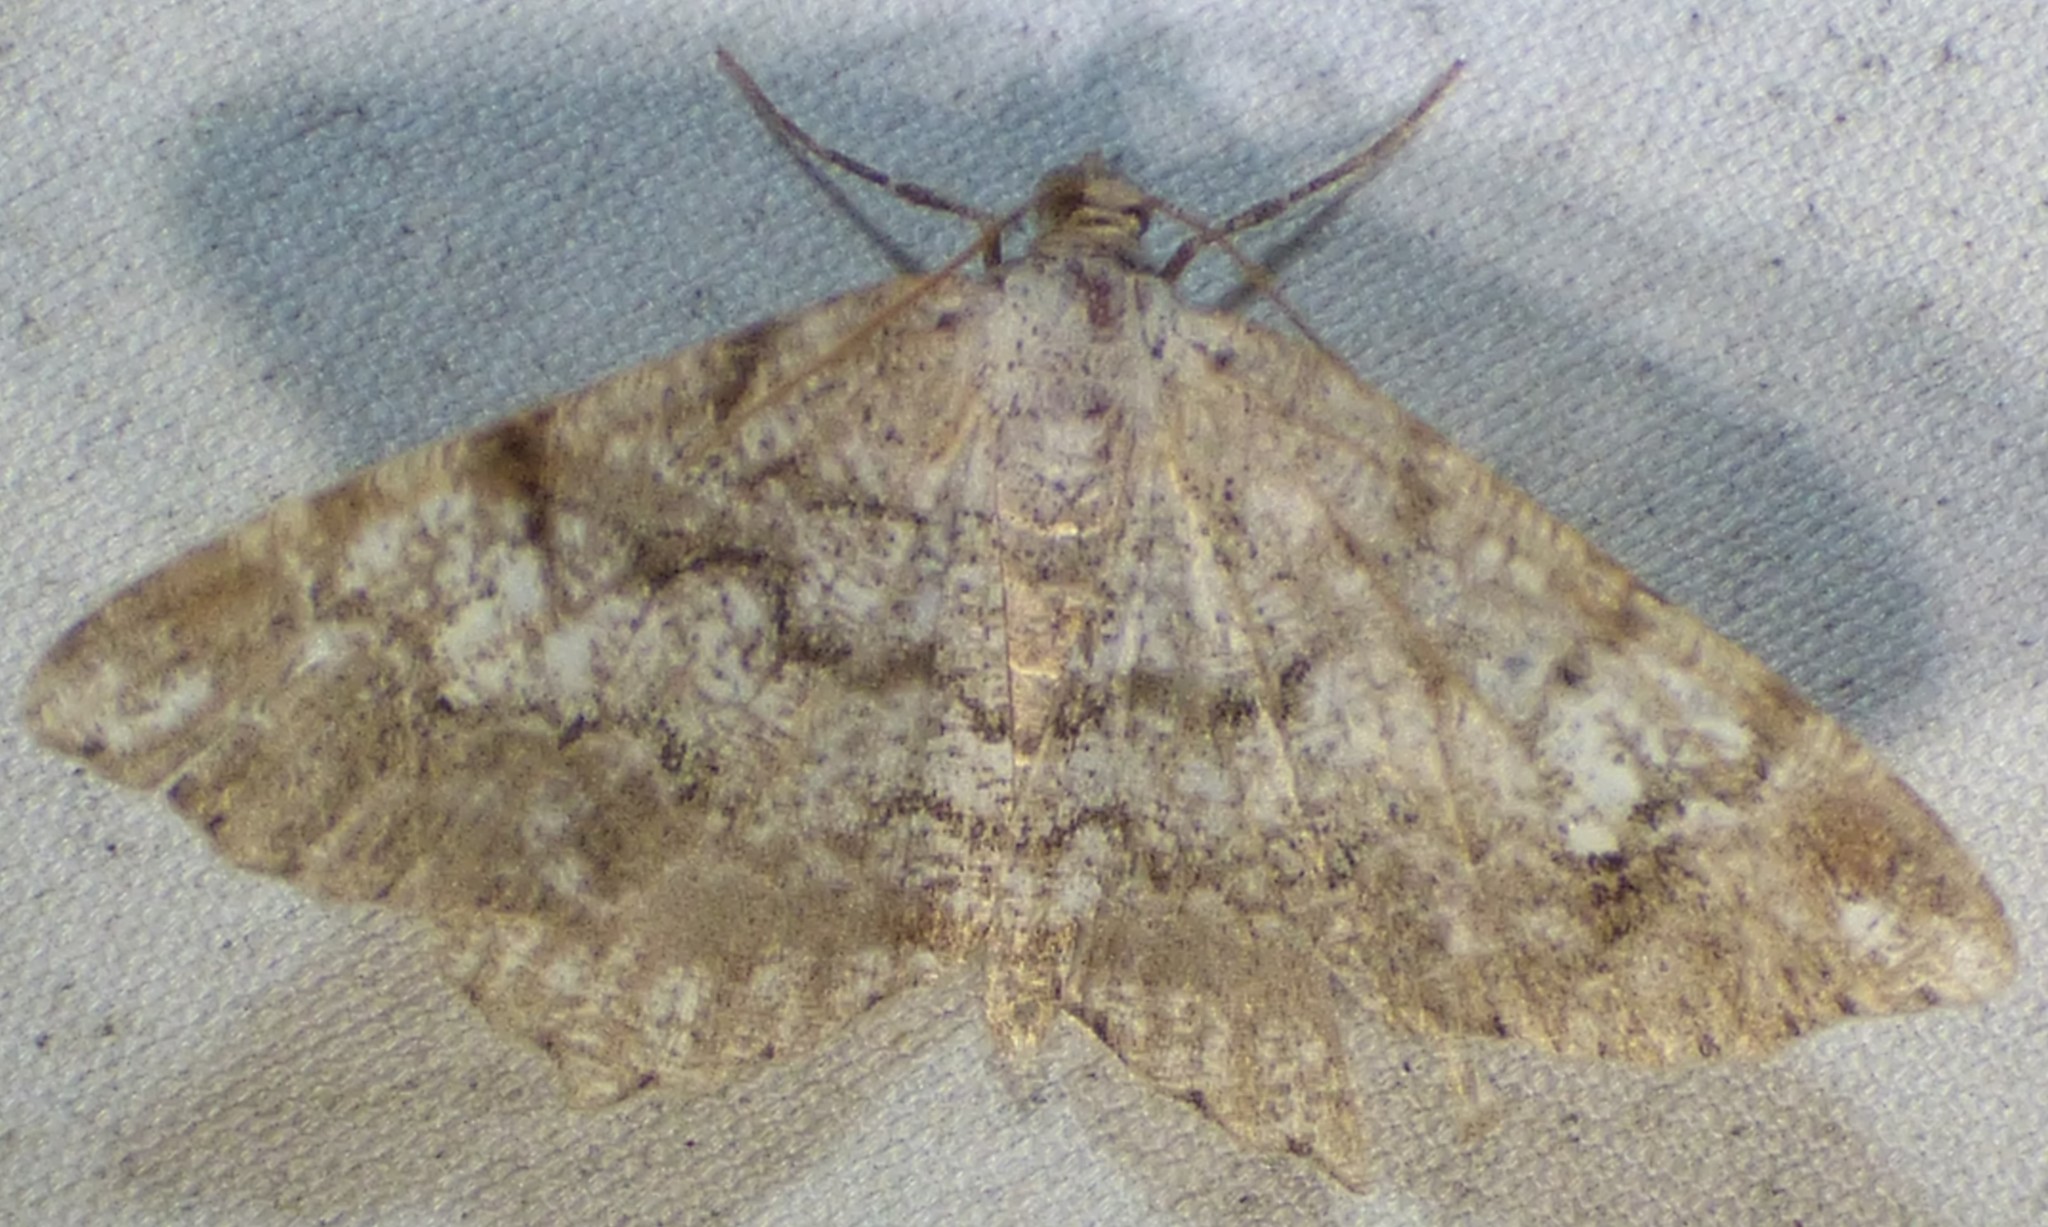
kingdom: Animalia
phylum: Arthropoda
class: Insecta
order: Lepidoptera
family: Geometridae
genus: Macaria
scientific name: Macaria granitata
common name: Granite moth
